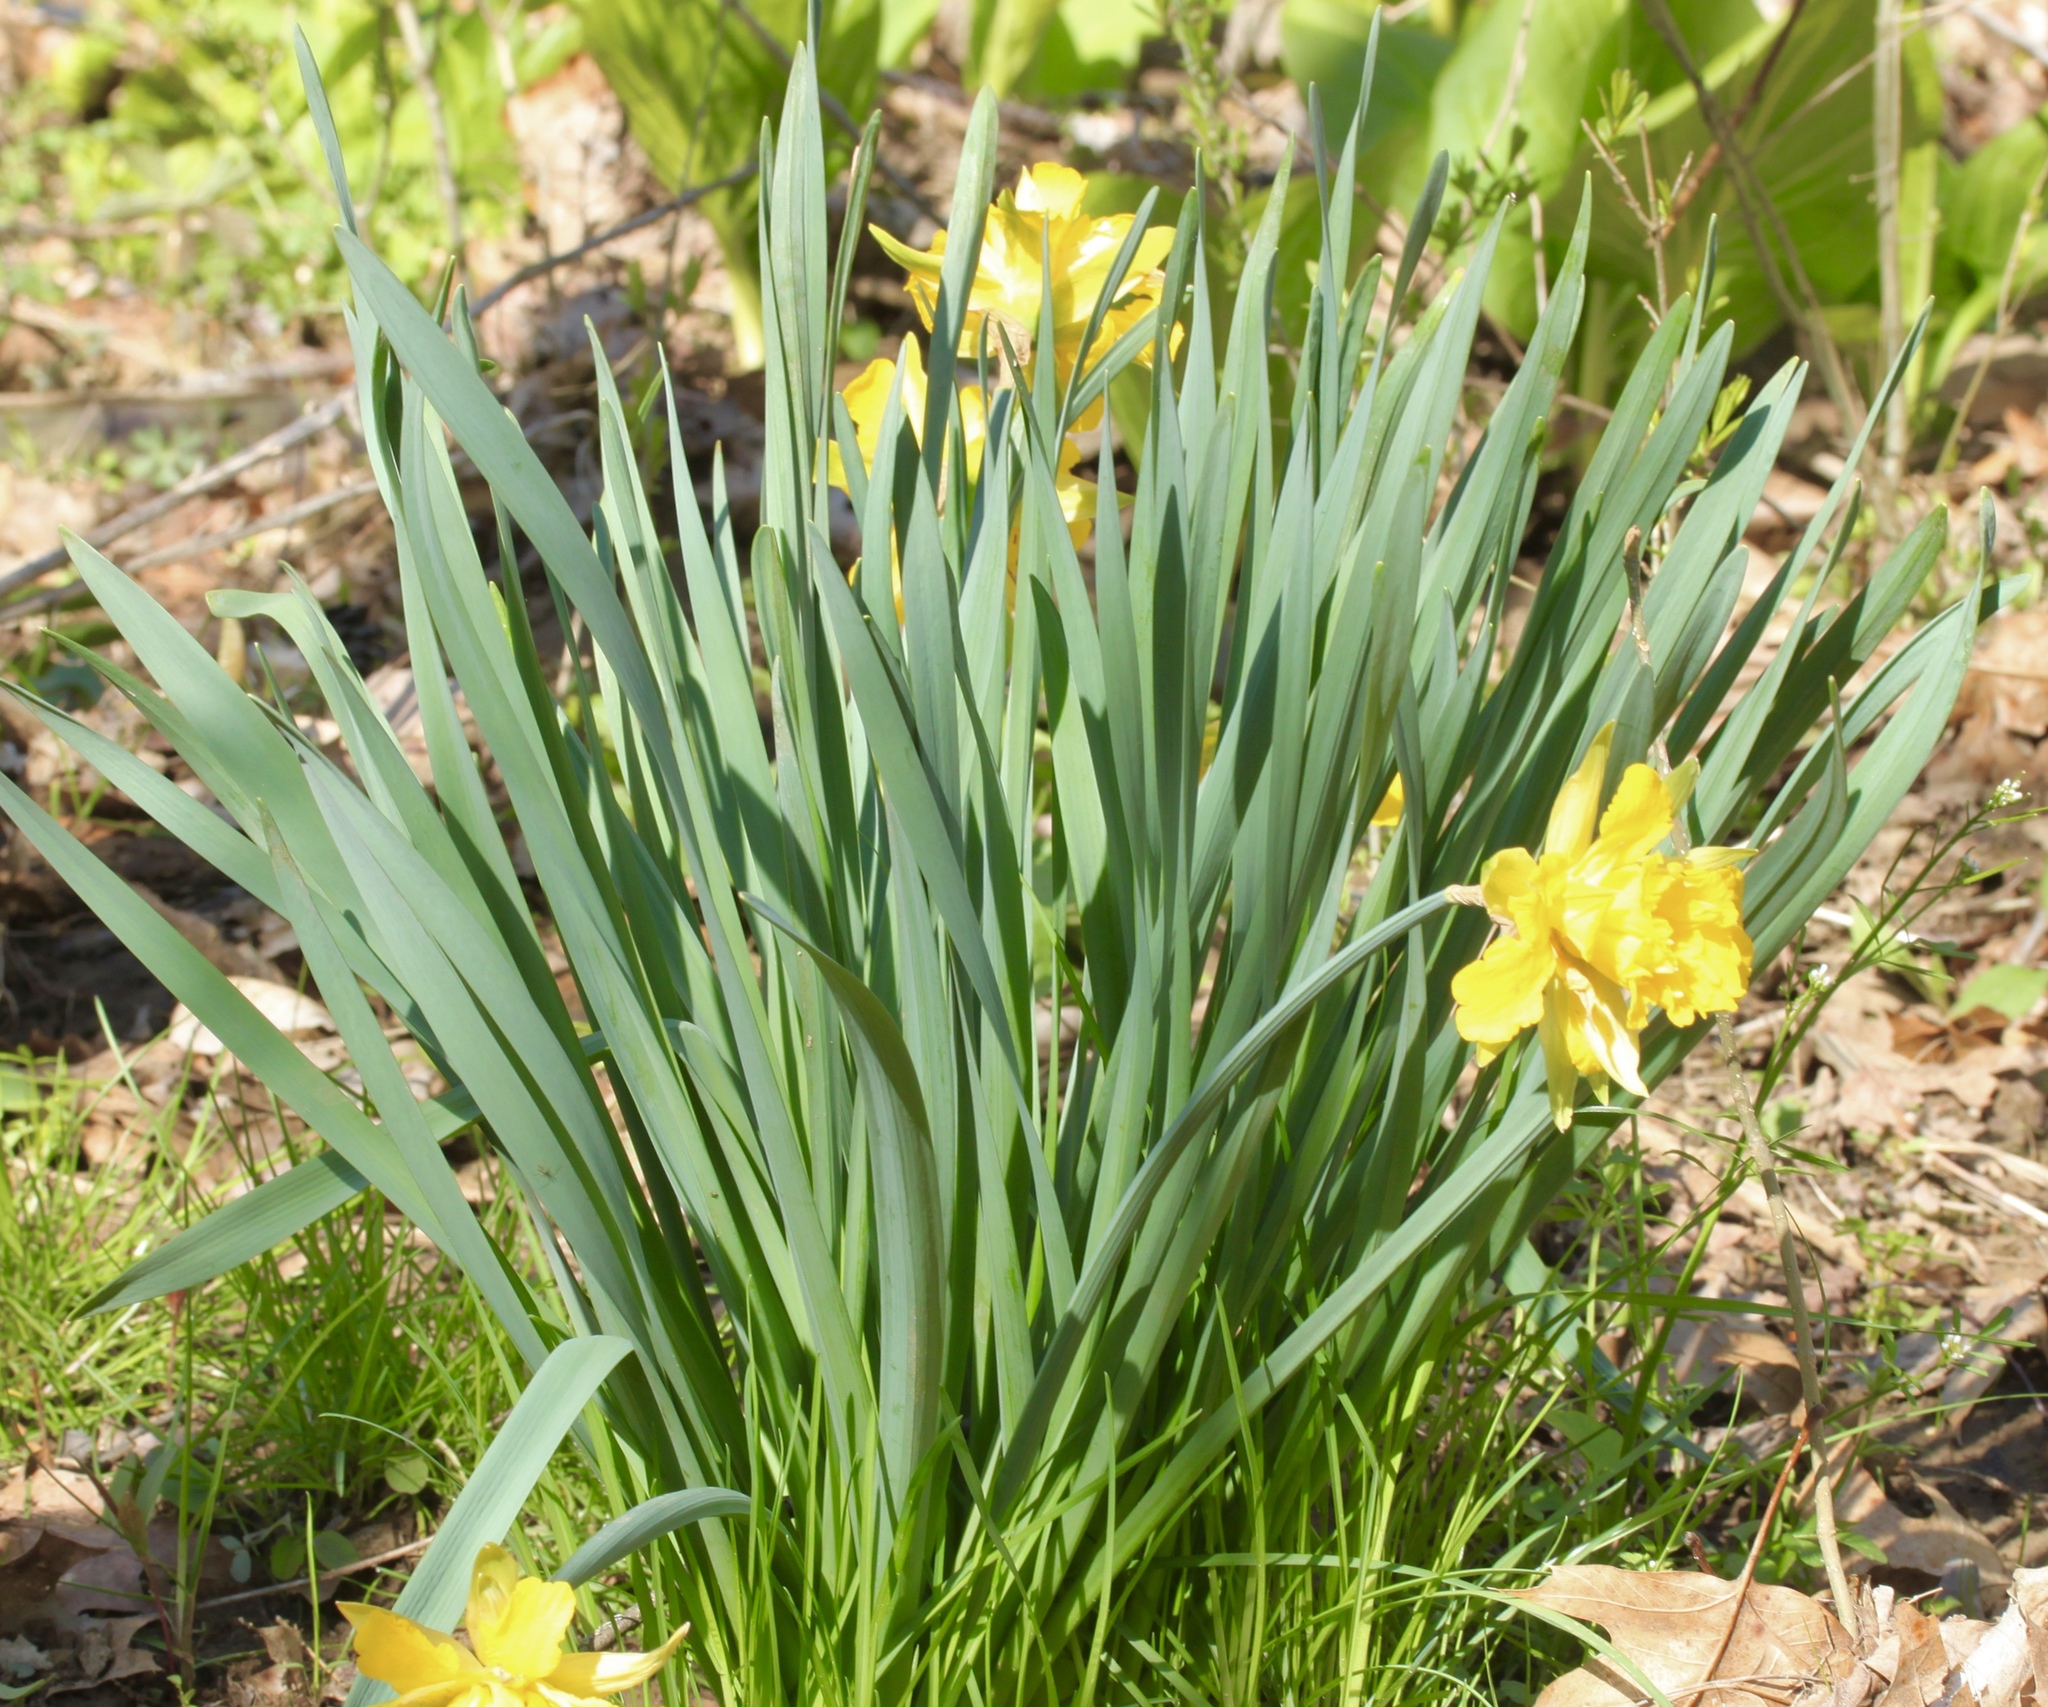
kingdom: Plantae
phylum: Tracheophyta
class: Liliopsida
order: Asparagales
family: Amaryllidaceae
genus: Narcissus
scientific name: Narcissus
